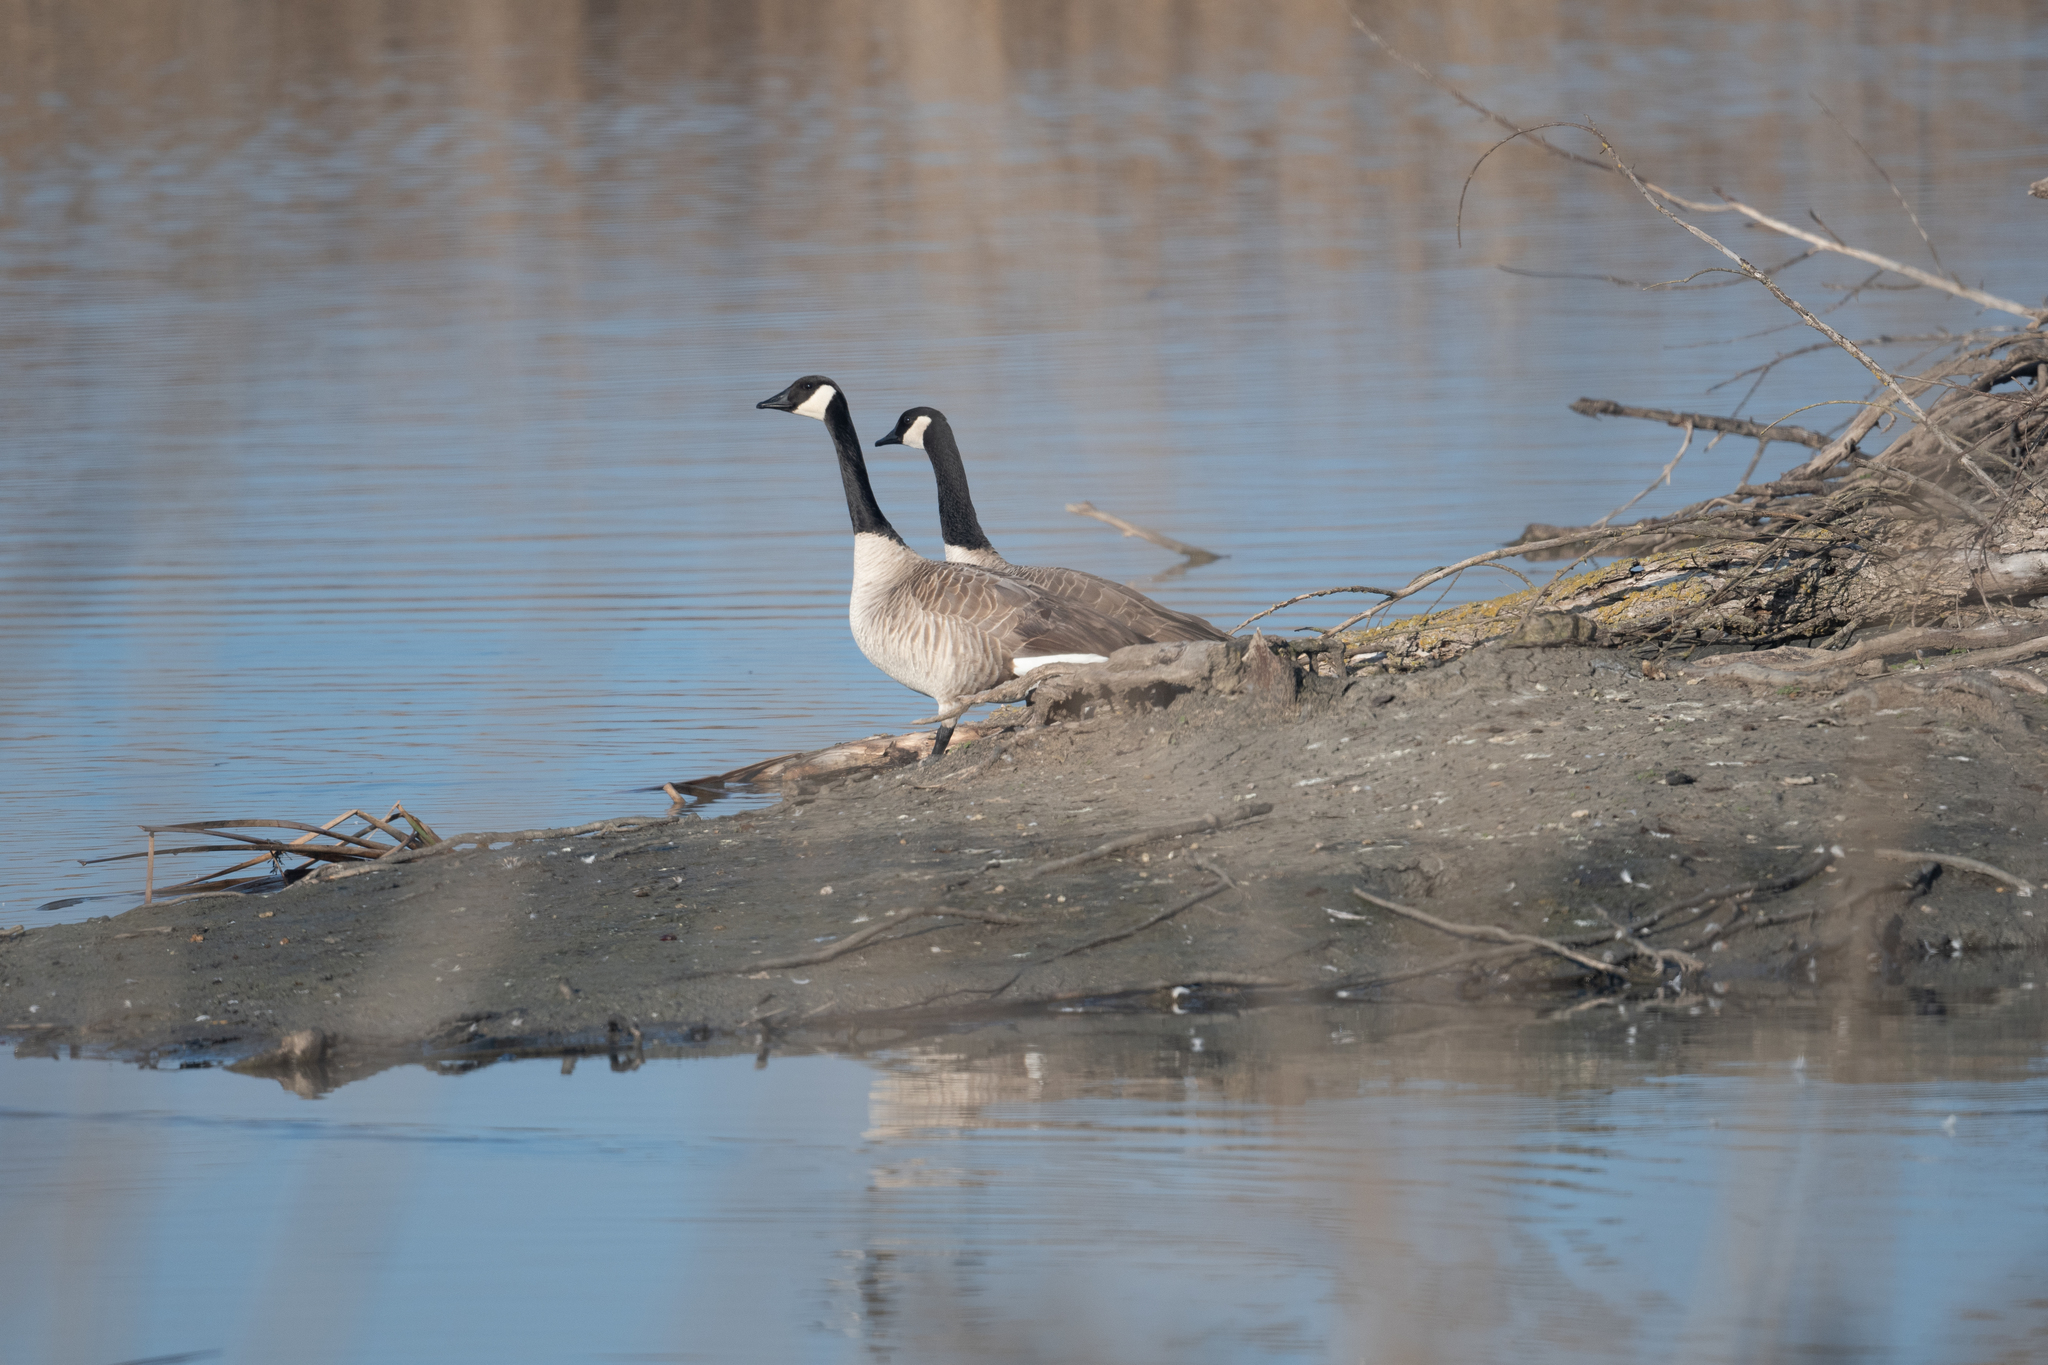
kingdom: Animalia
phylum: Chordata
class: Aves
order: Anseriformes
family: Anatidae
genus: Branta
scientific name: Branta canadensis
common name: Canada goose
